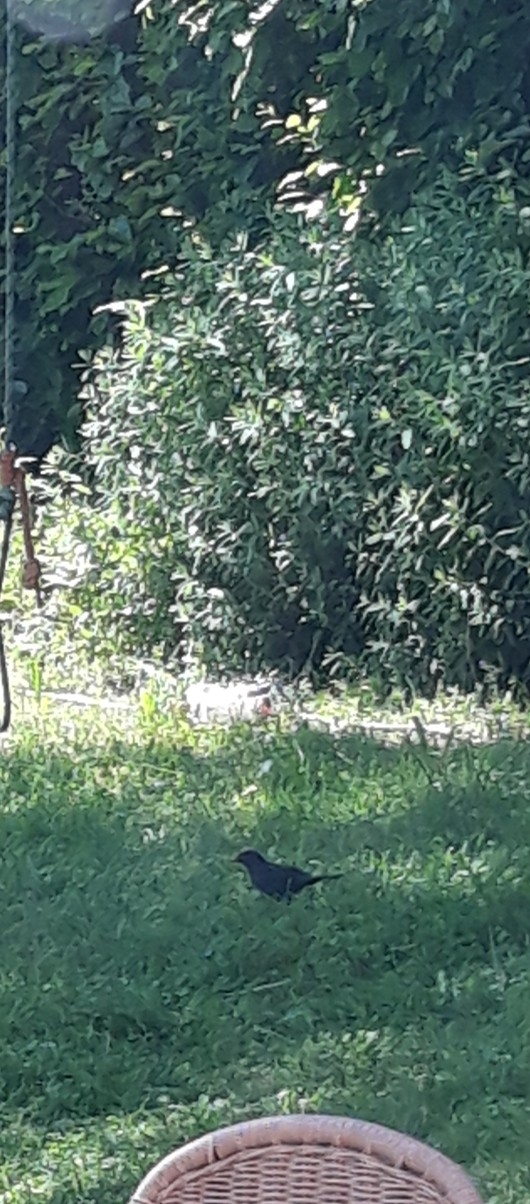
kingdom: Animalia
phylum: Chordata
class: Aves
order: Passeriformes
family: Turdidae
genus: Turdus
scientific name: Turdus merula
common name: Common blackbird
